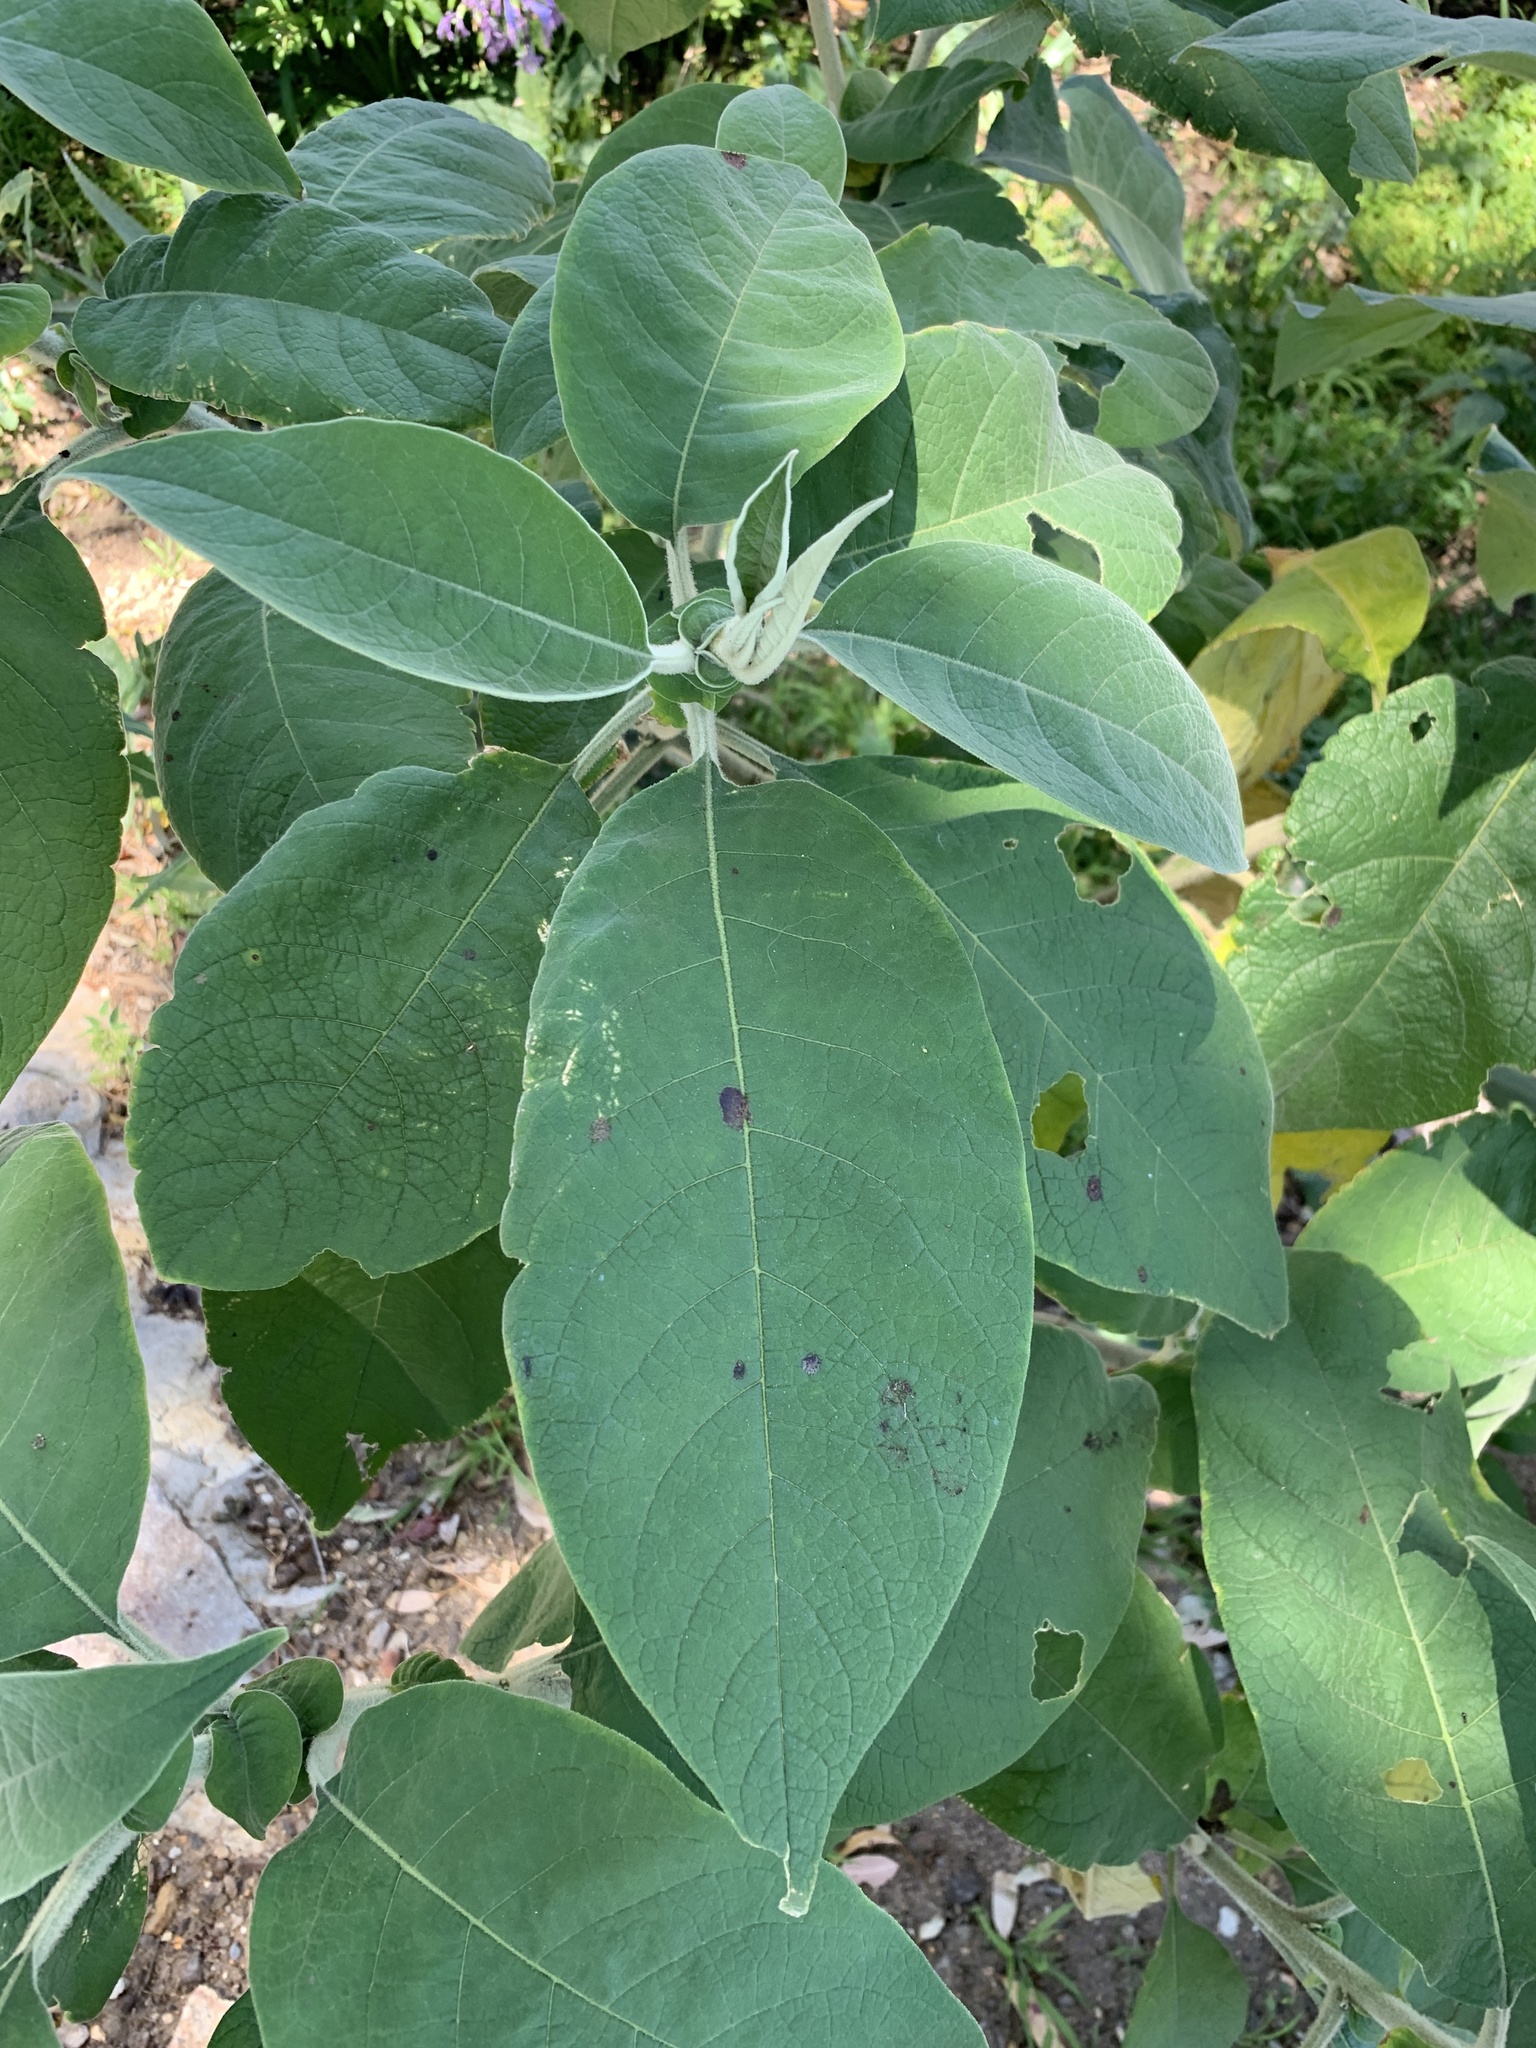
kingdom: Plantae
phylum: Tracheophyta
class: Magnoliopsida
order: Solanales
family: Solanaceae
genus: Solanum
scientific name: Solanum mauritianum
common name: Earleaf nightshade
